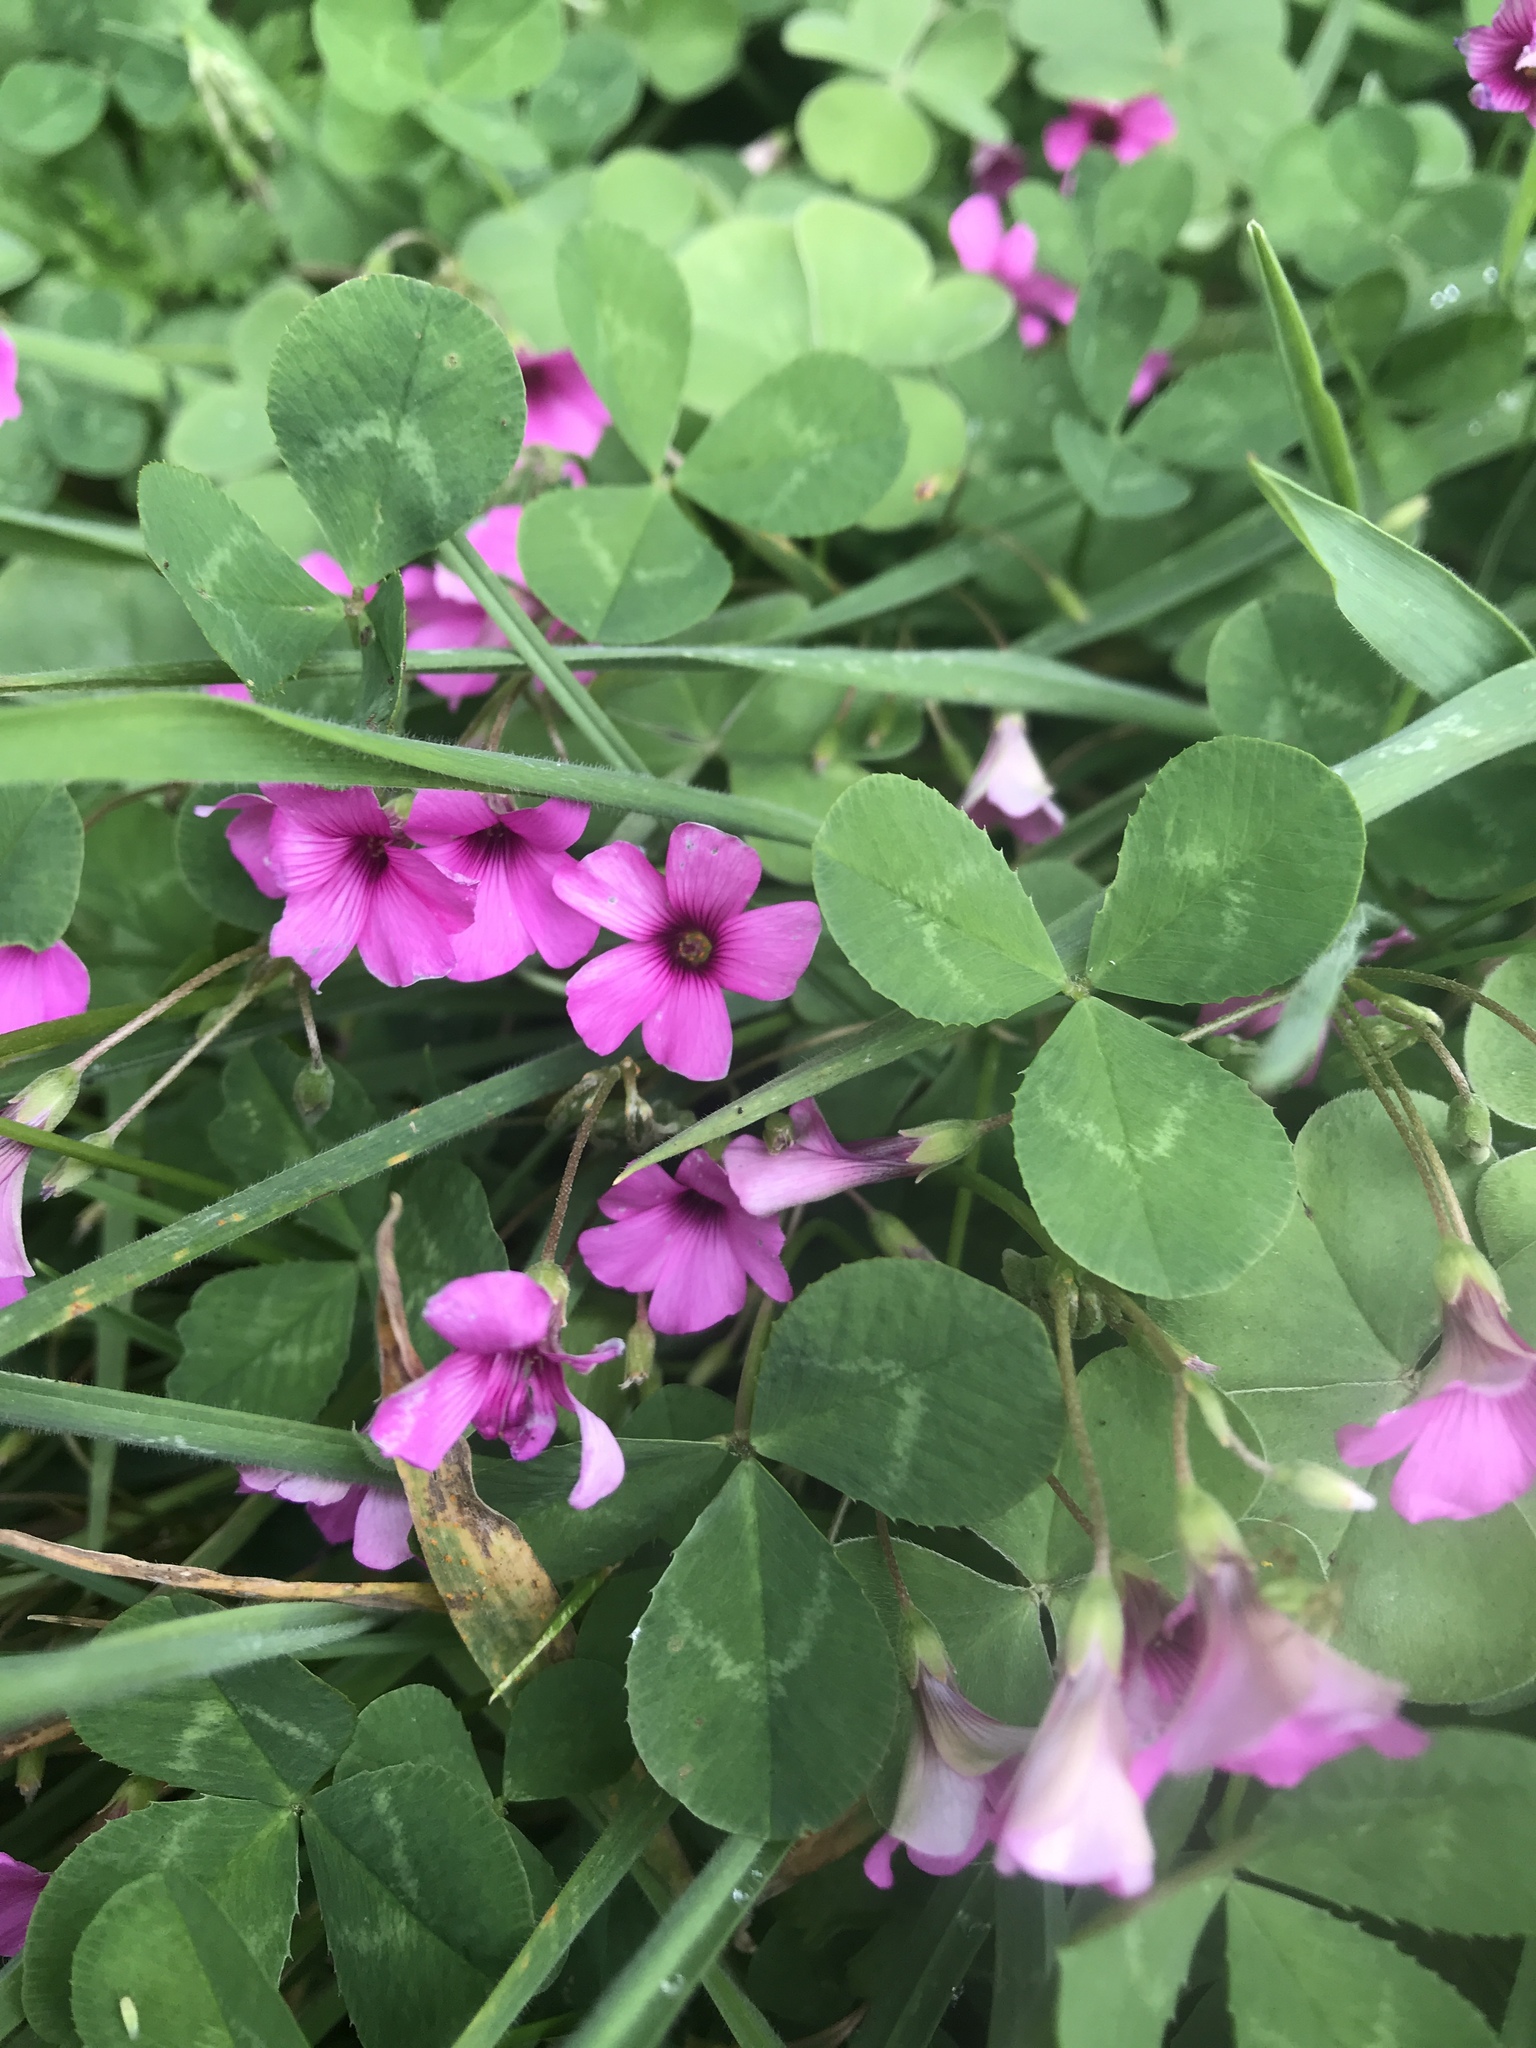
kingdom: Plantae
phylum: Tracheophyta
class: Magnoliopsida
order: Oxalidales
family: Oxalidaceae
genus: Oxalis
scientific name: Oxalis articulata
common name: Pink-sorrel
